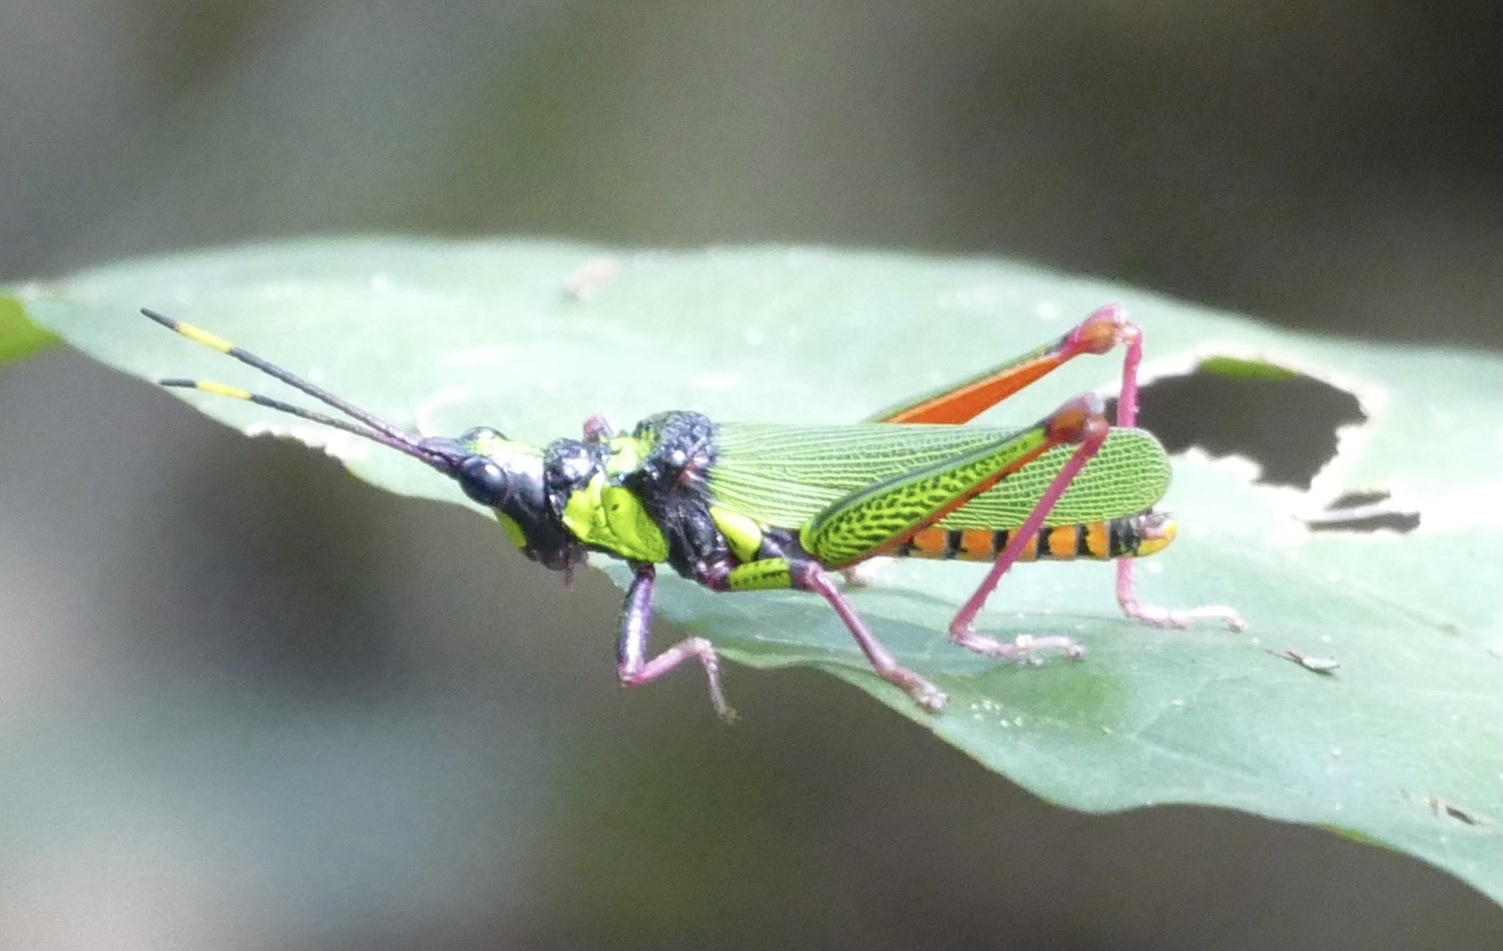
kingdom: Animalia
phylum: Arthropoda
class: Insecta
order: Orthoptera
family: Pyrgomorphidae
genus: Taphronota
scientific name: Taphronota ferruginea
